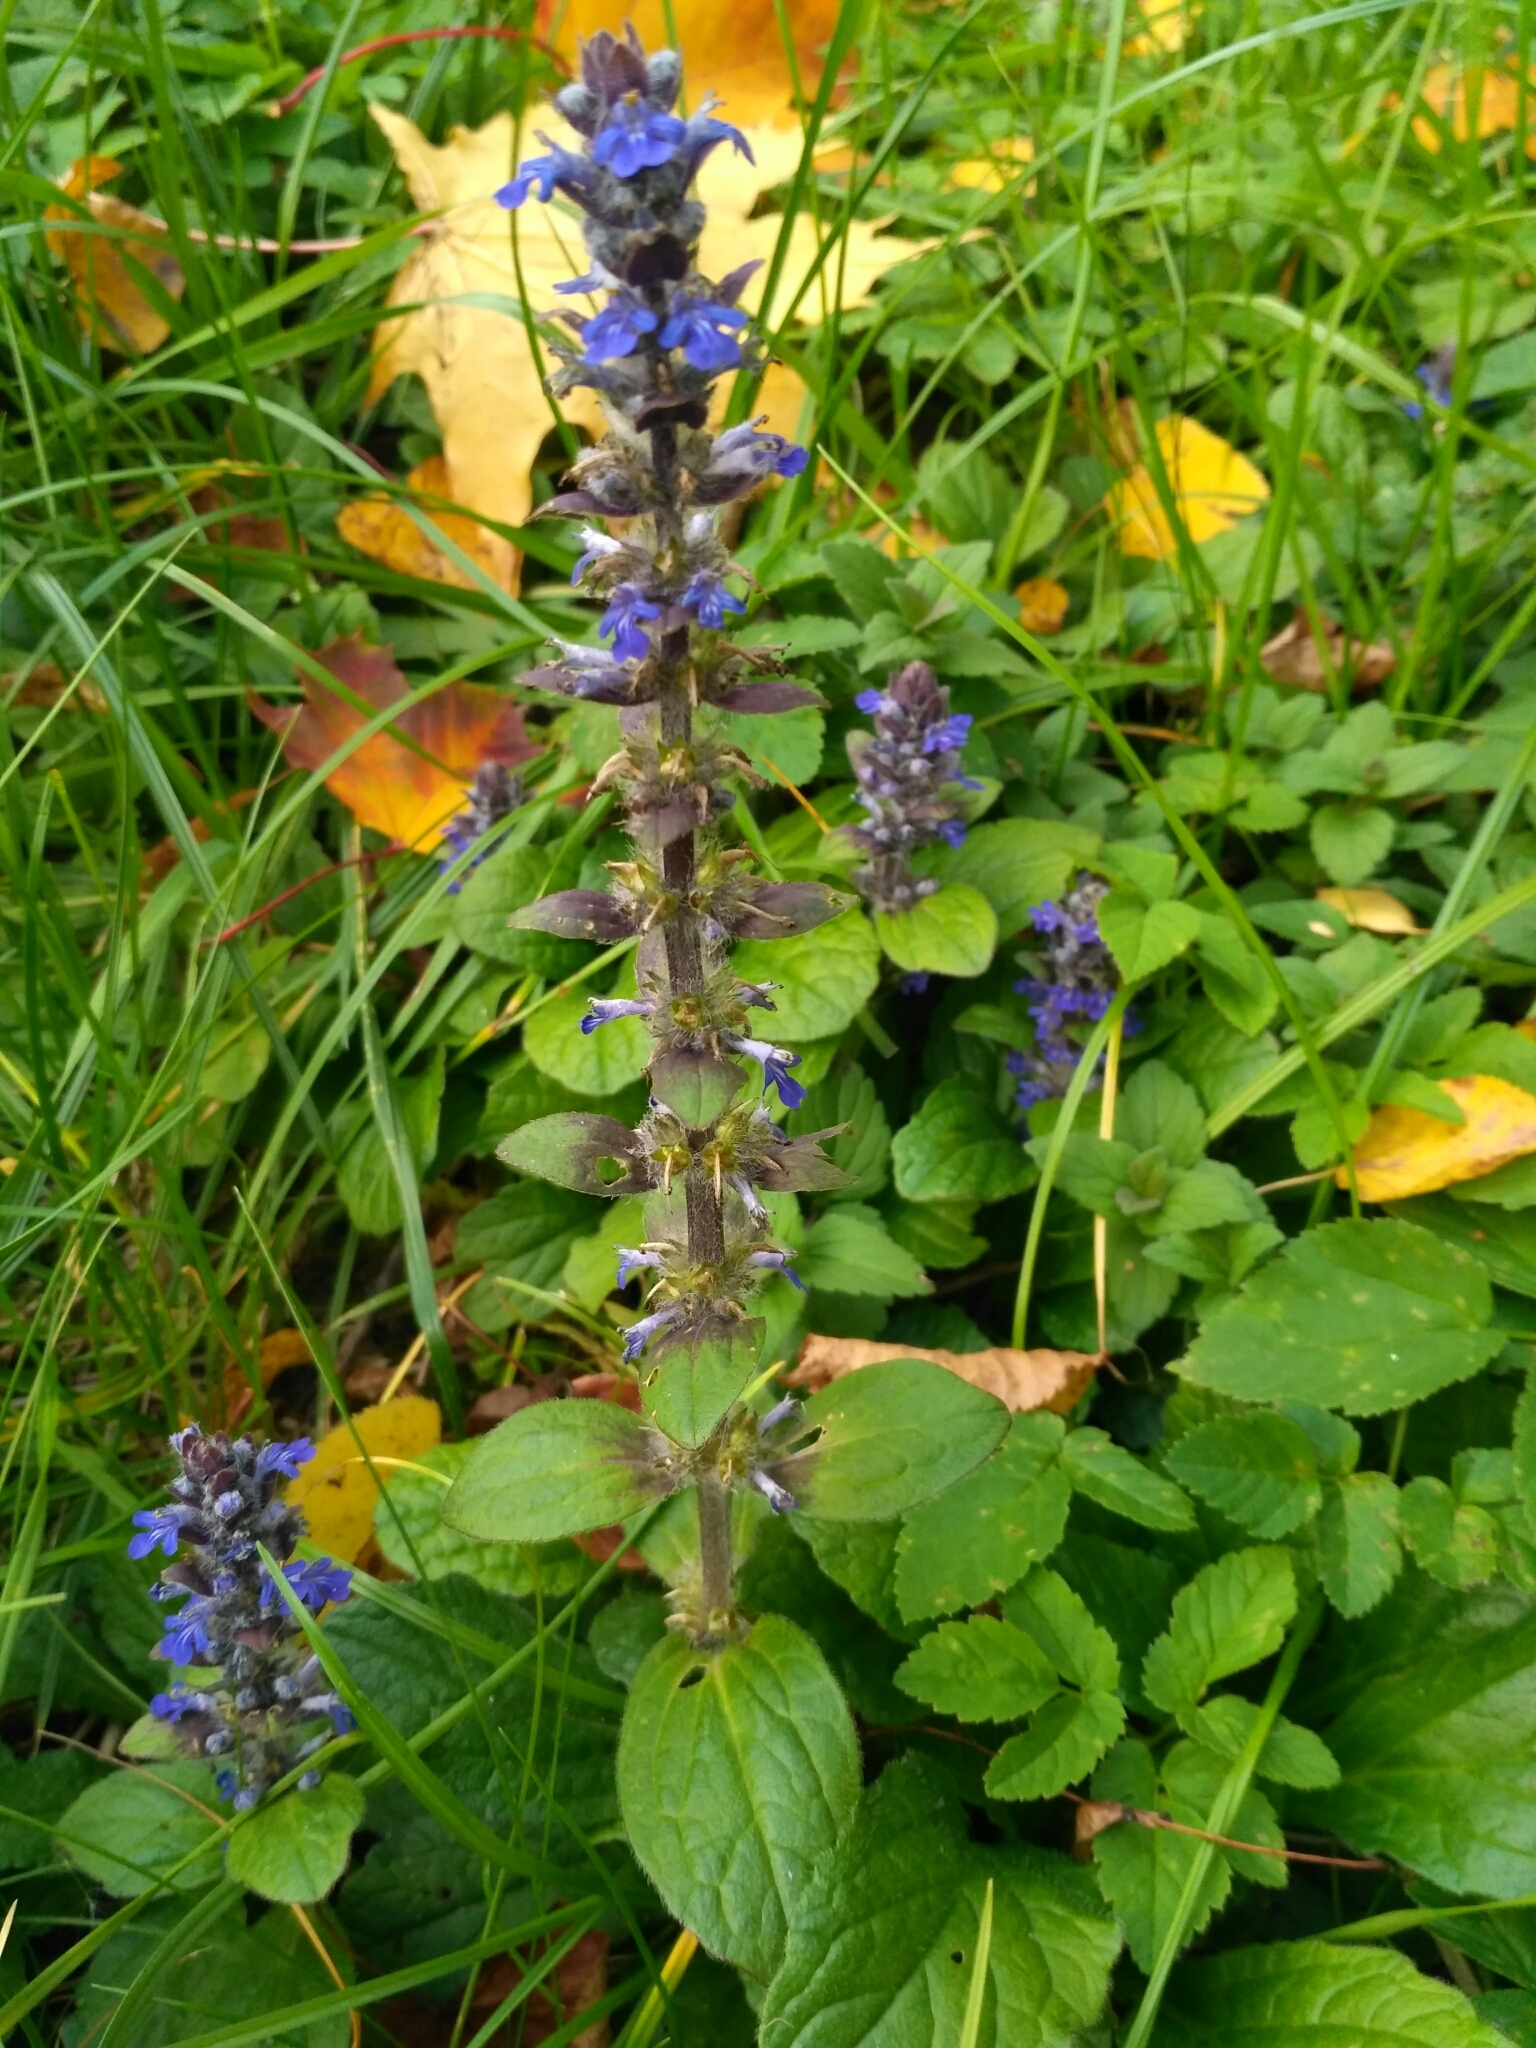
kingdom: Plantae
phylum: Tracheophyta
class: Magnoliopsida
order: Lamiales
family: Lamiaceae
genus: Ajuga
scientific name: Ajuga reptans
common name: Bugle
